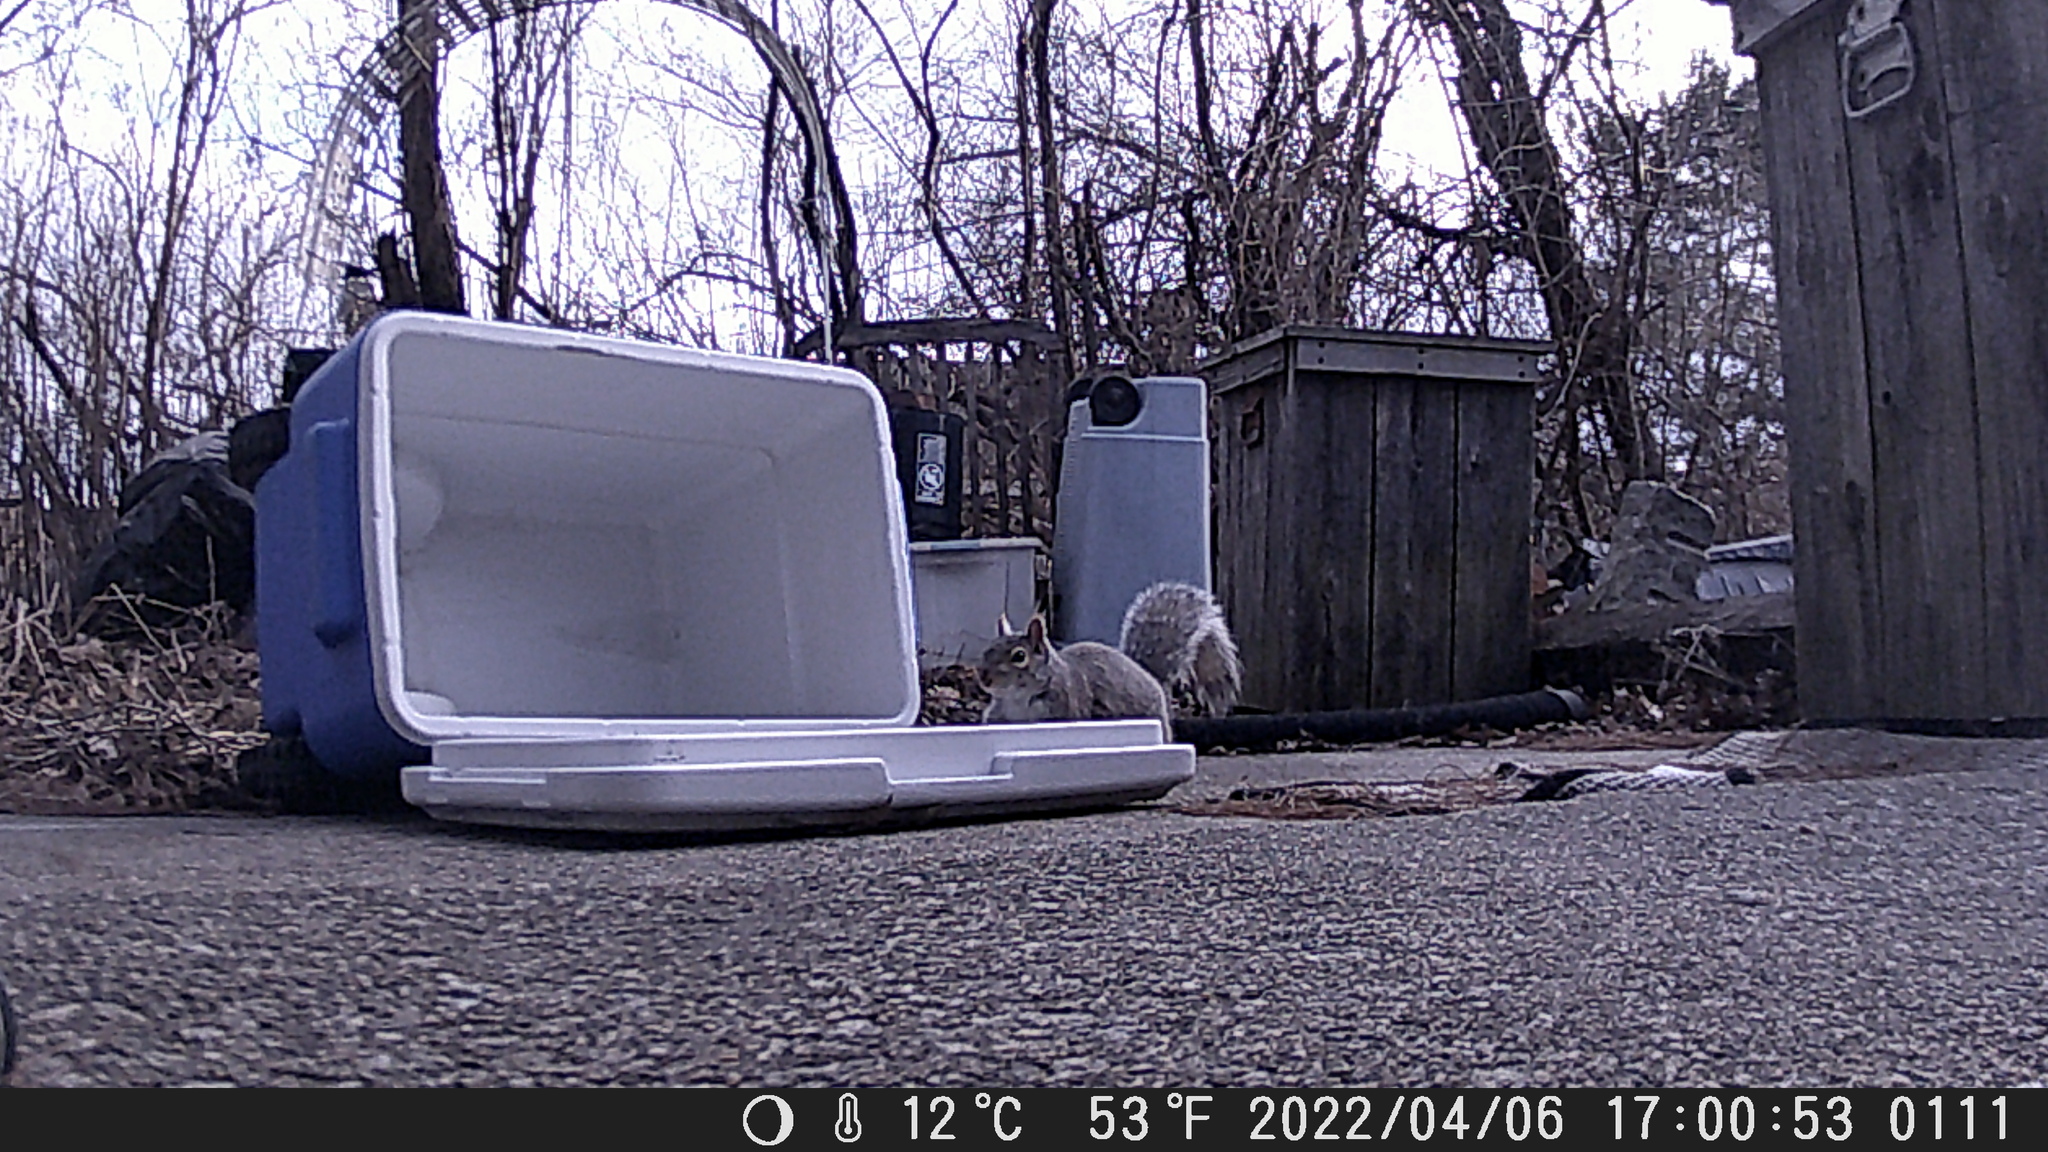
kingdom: Animalia
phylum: Chordata
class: Mammalia
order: Rodentia
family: Sciuridae
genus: Sciurus
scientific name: Sciurus carolinensis
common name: Eastern gray squirrel
